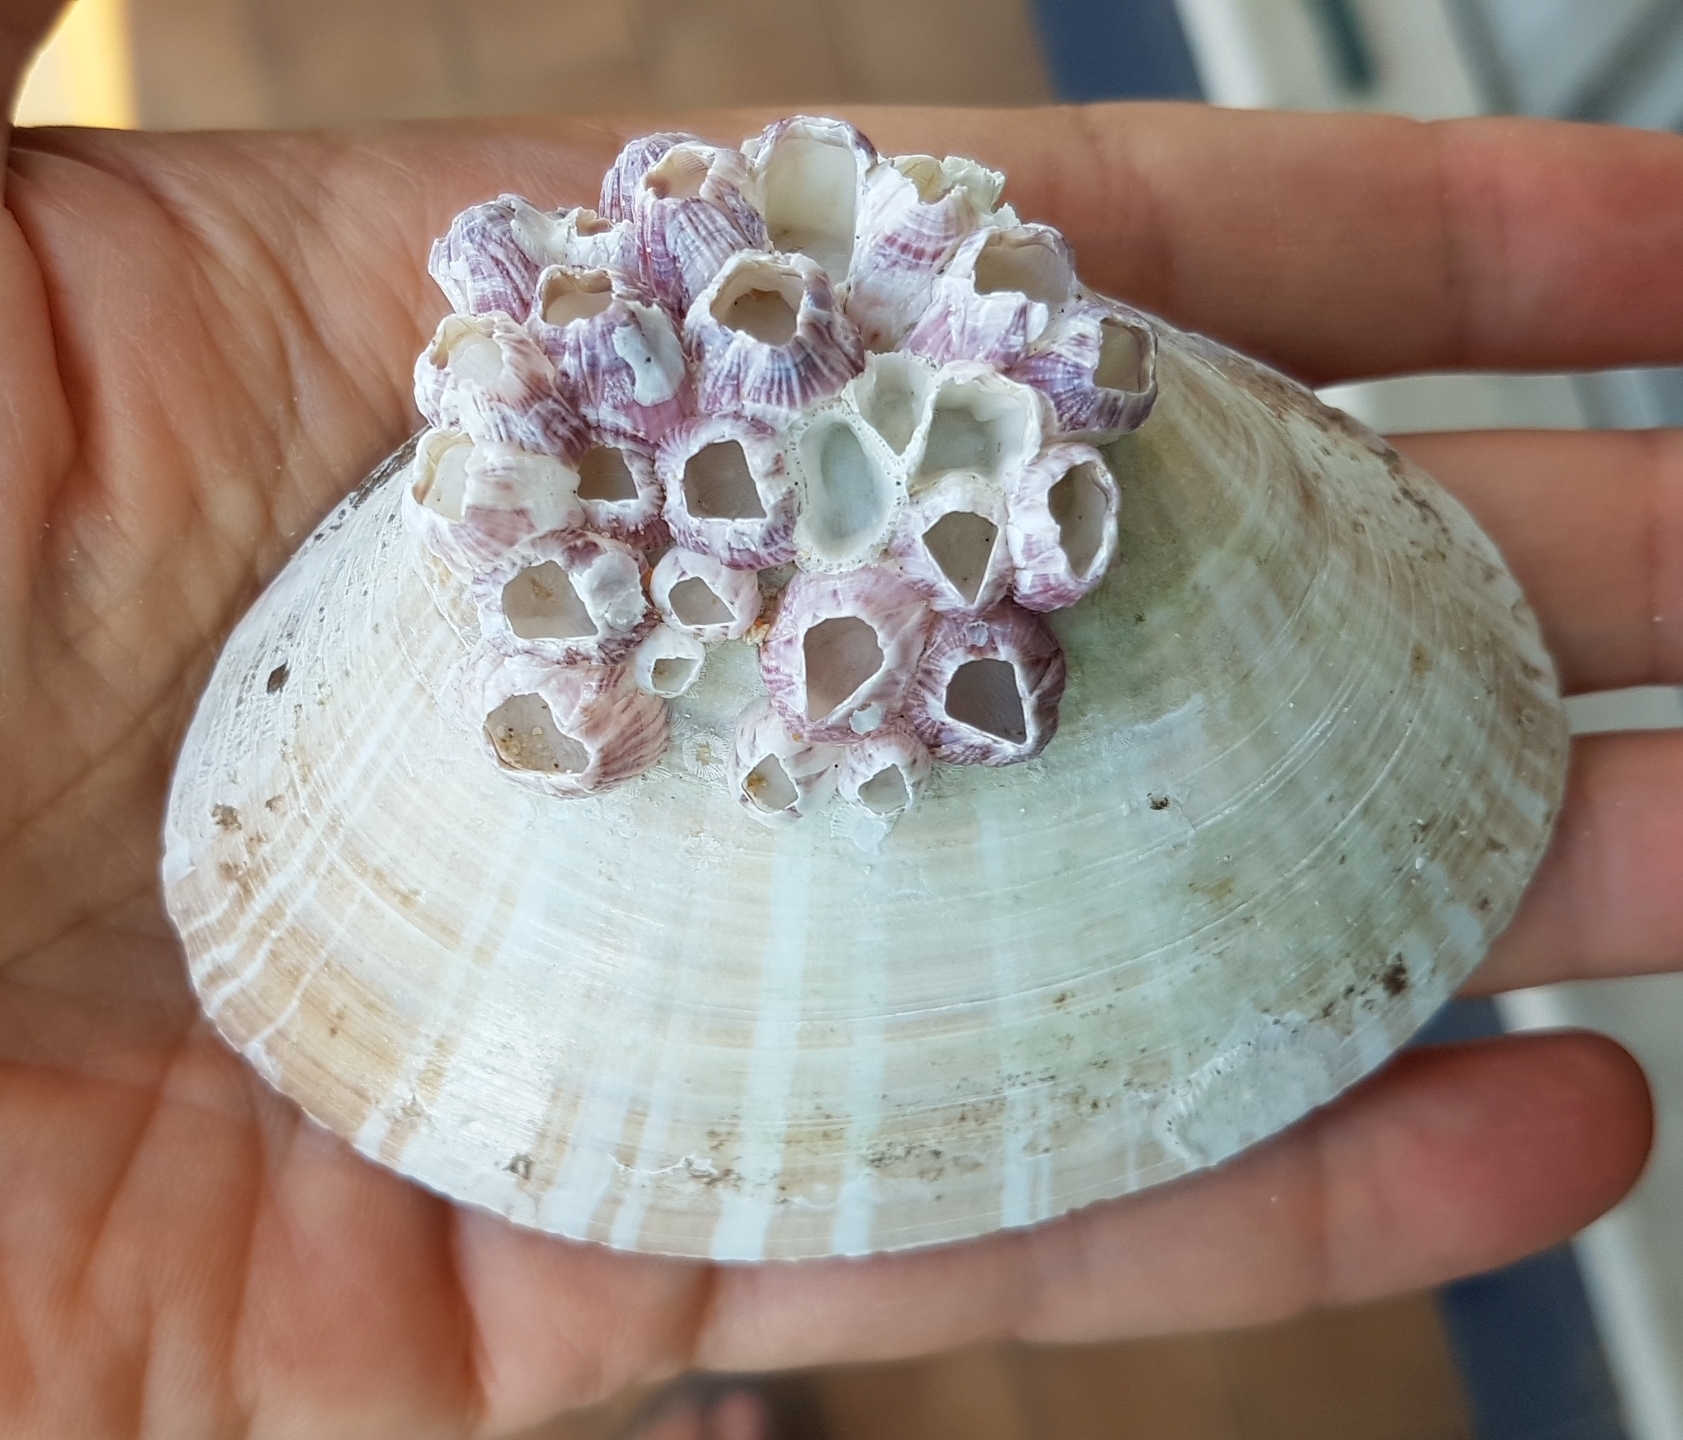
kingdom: Animalia
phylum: Mollusca
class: Bivalvia
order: Venerida
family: Mactridae
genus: Mactra
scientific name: Mactra glauca
